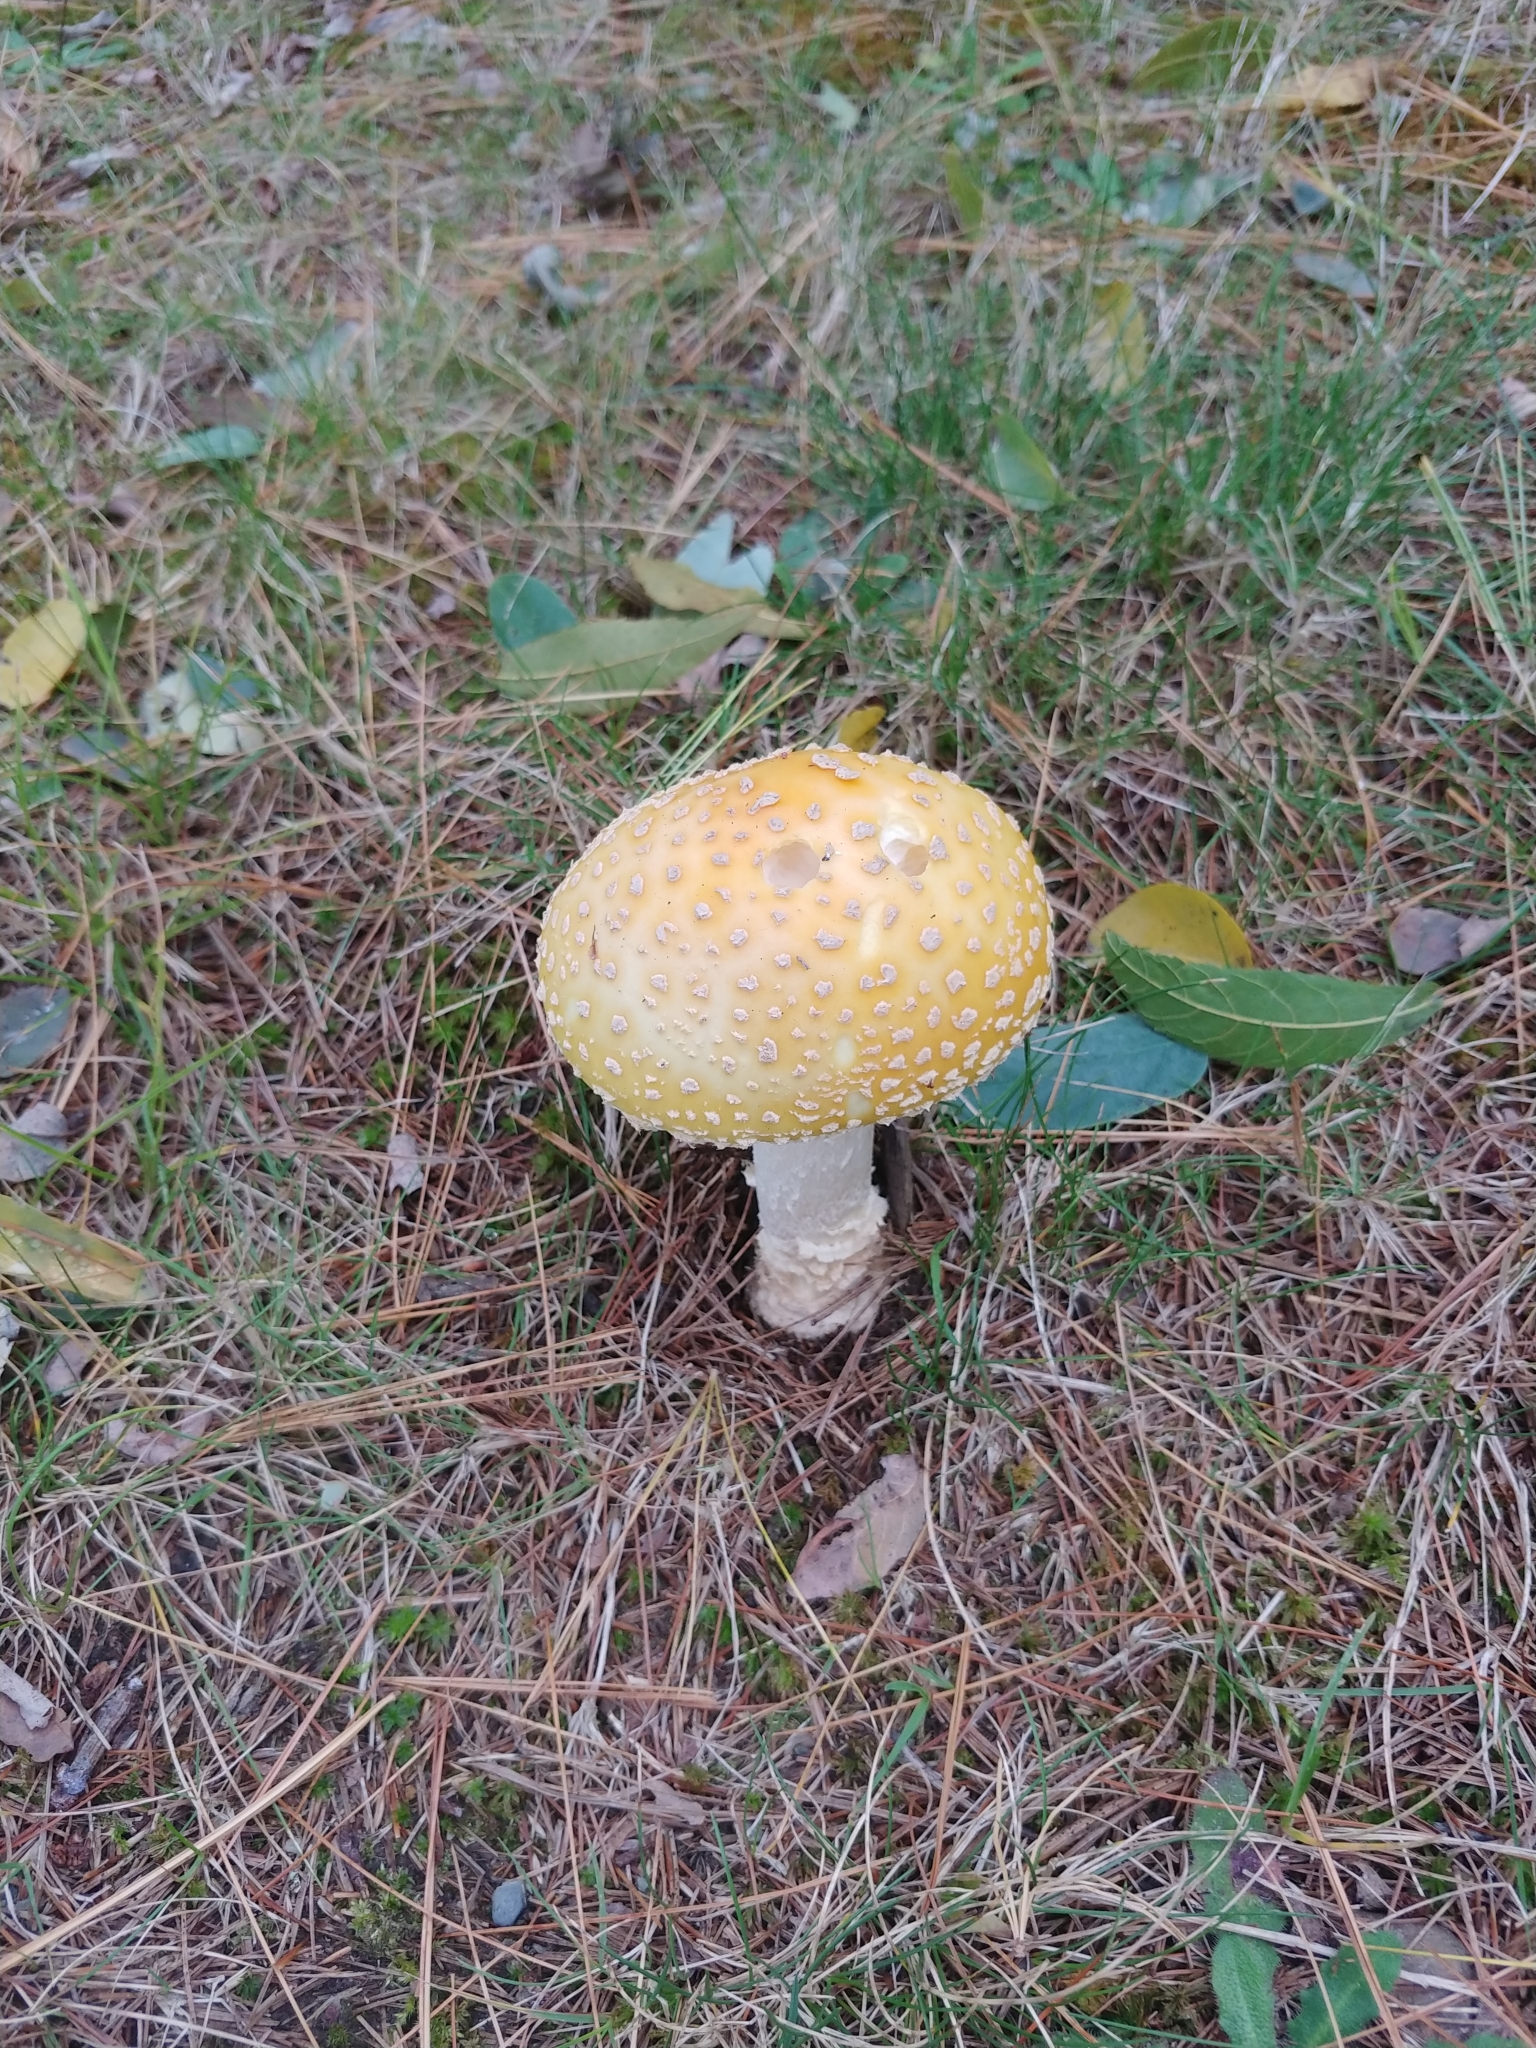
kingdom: Fungi
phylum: Basidiomycota
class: Agaricomycetes
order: Agaricales
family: Amanitaceae
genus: Amanita
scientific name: Amanita muscaria
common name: Fly agaric
